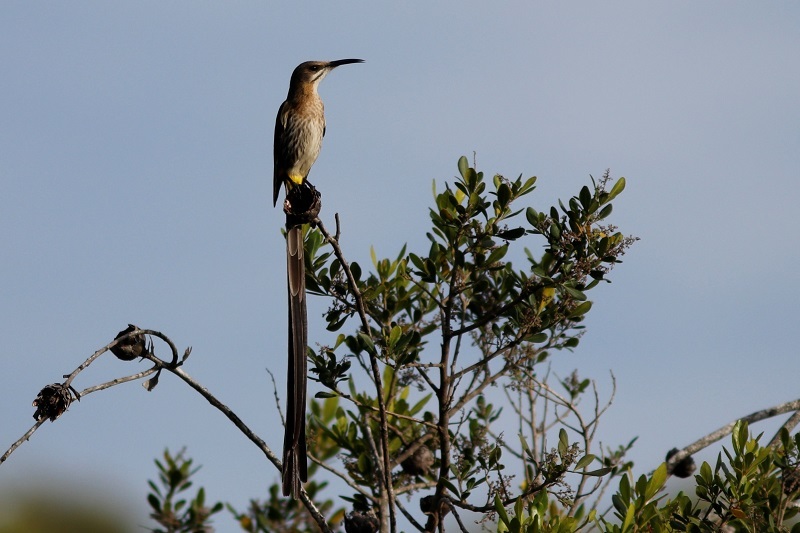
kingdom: Animalia
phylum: Chordata
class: Aves
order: Passeriformes
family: Promeropidae
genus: Promerops
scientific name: Promerops cafer
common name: Cape sugarbird
